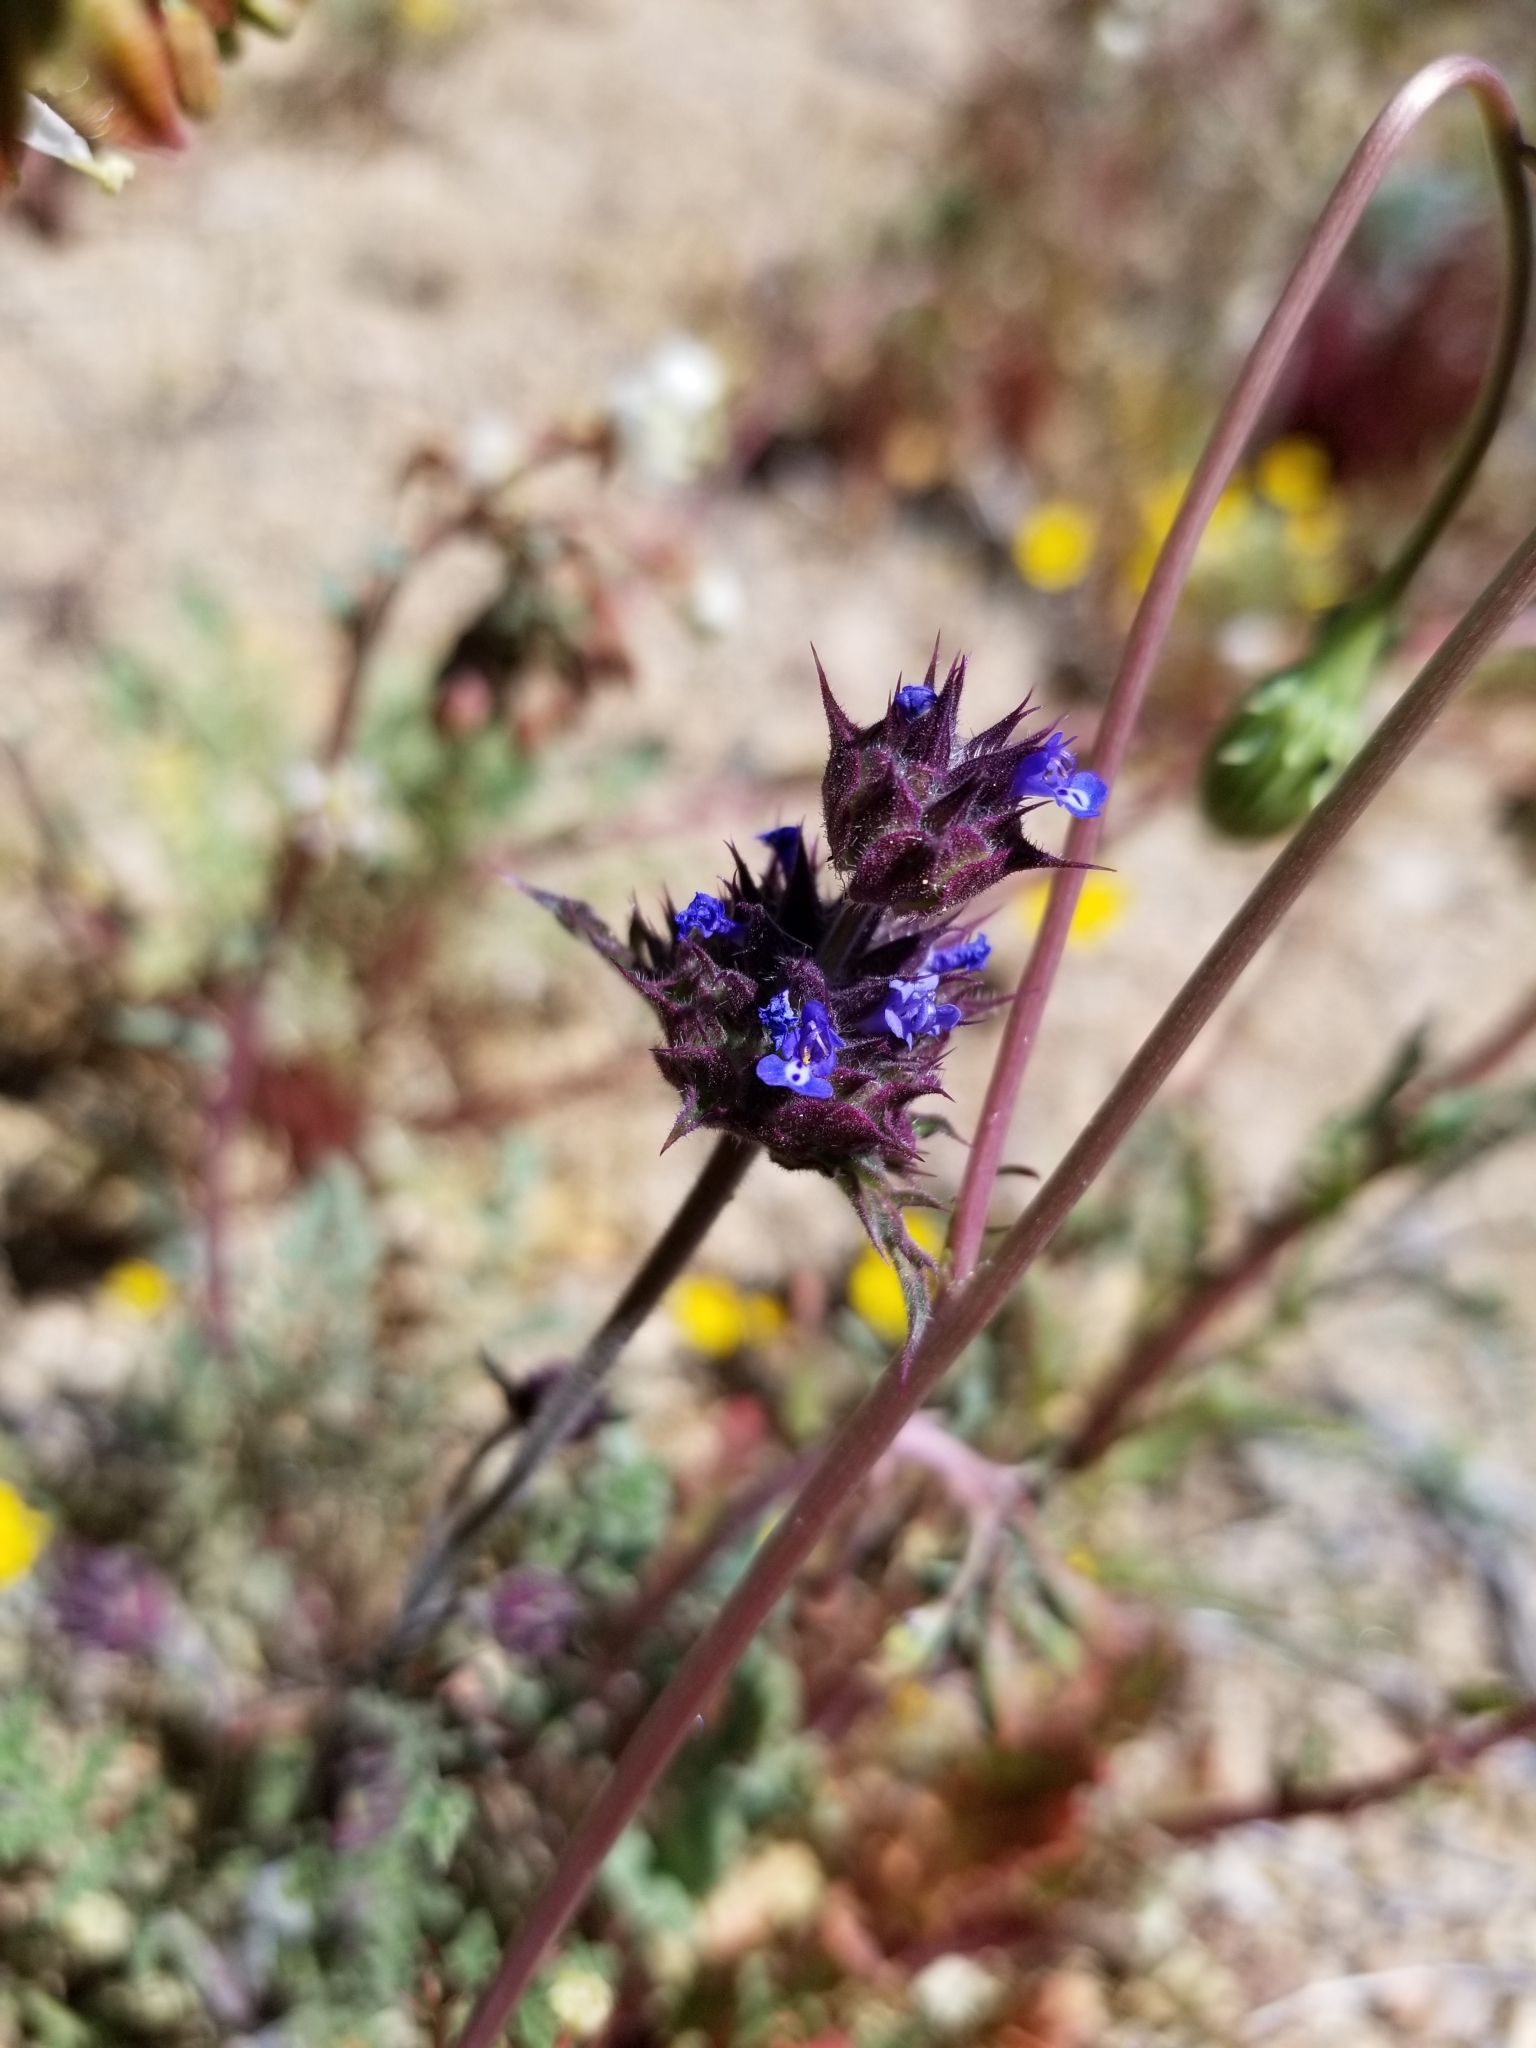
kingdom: Plantae
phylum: Tracheophyta
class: Magnoliopsida
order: Lamiales
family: Lamiaceae
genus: Salvia
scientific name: Salvia columbariae
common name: Chia
